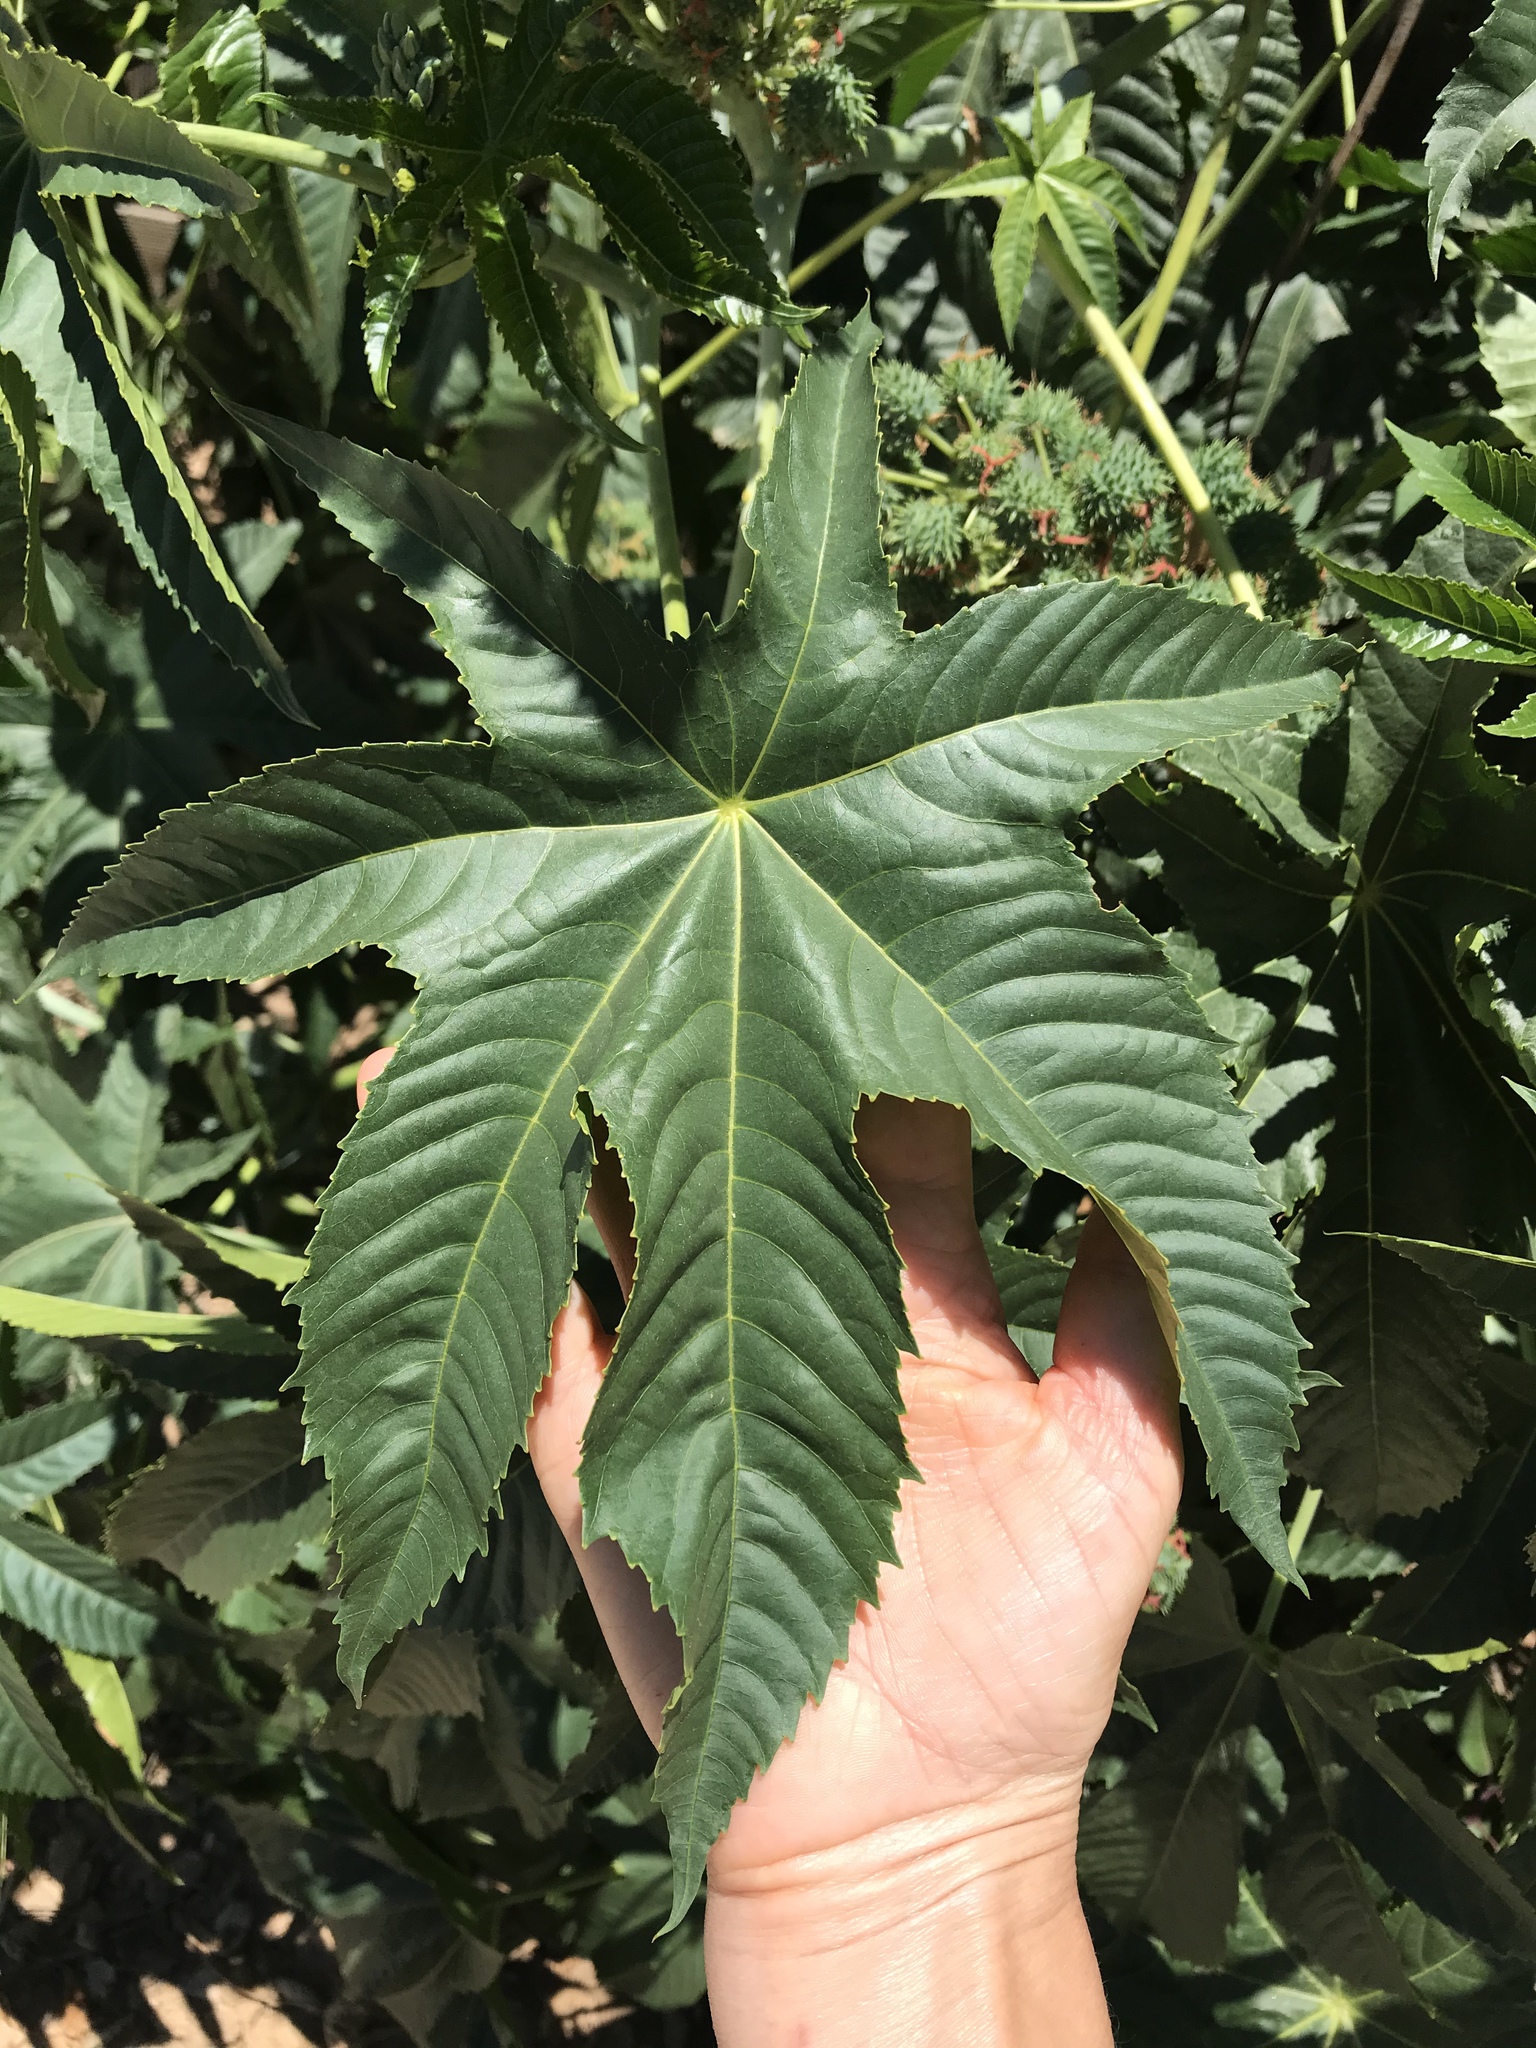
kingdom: Plantae
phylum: Tracheophyta
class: Magnoliopsida
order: Malpighiales
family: Euphorbiaceae
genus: Ricinus
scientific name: Ricinus communis
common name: Castor-oil-plant
